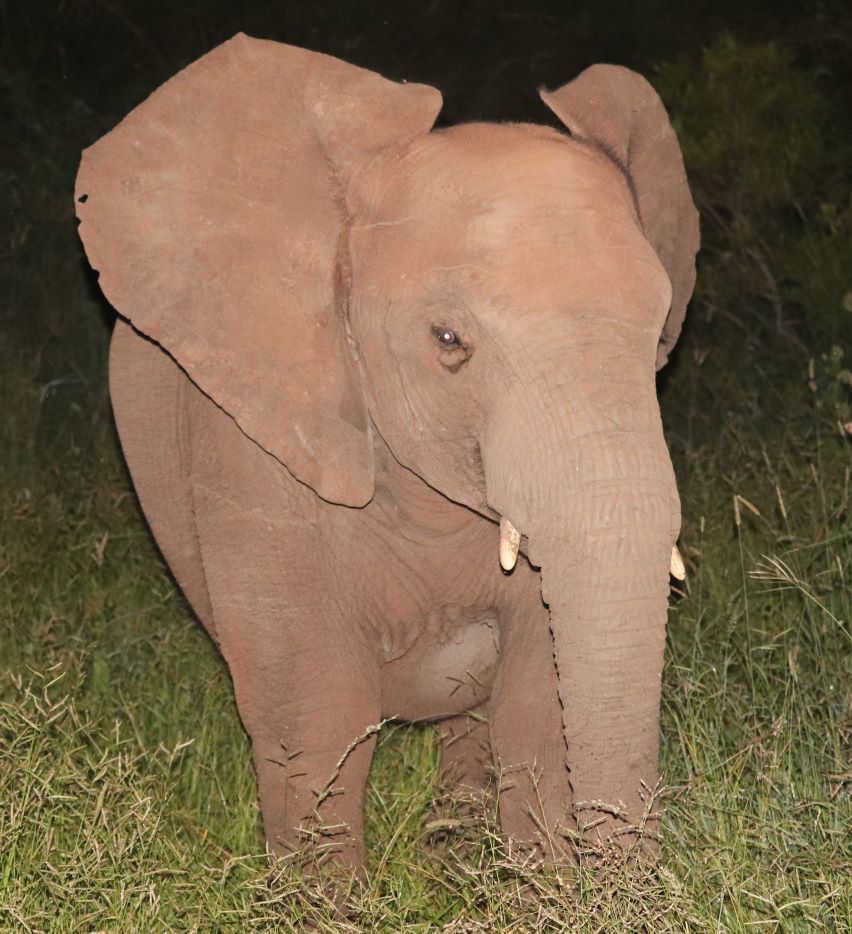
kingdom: Animalia
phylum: Chordata
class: Mammalia
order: Proboscidea
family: Elephantidae
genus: Loxodonta
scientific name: Loxodonta africana
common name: African elephant
